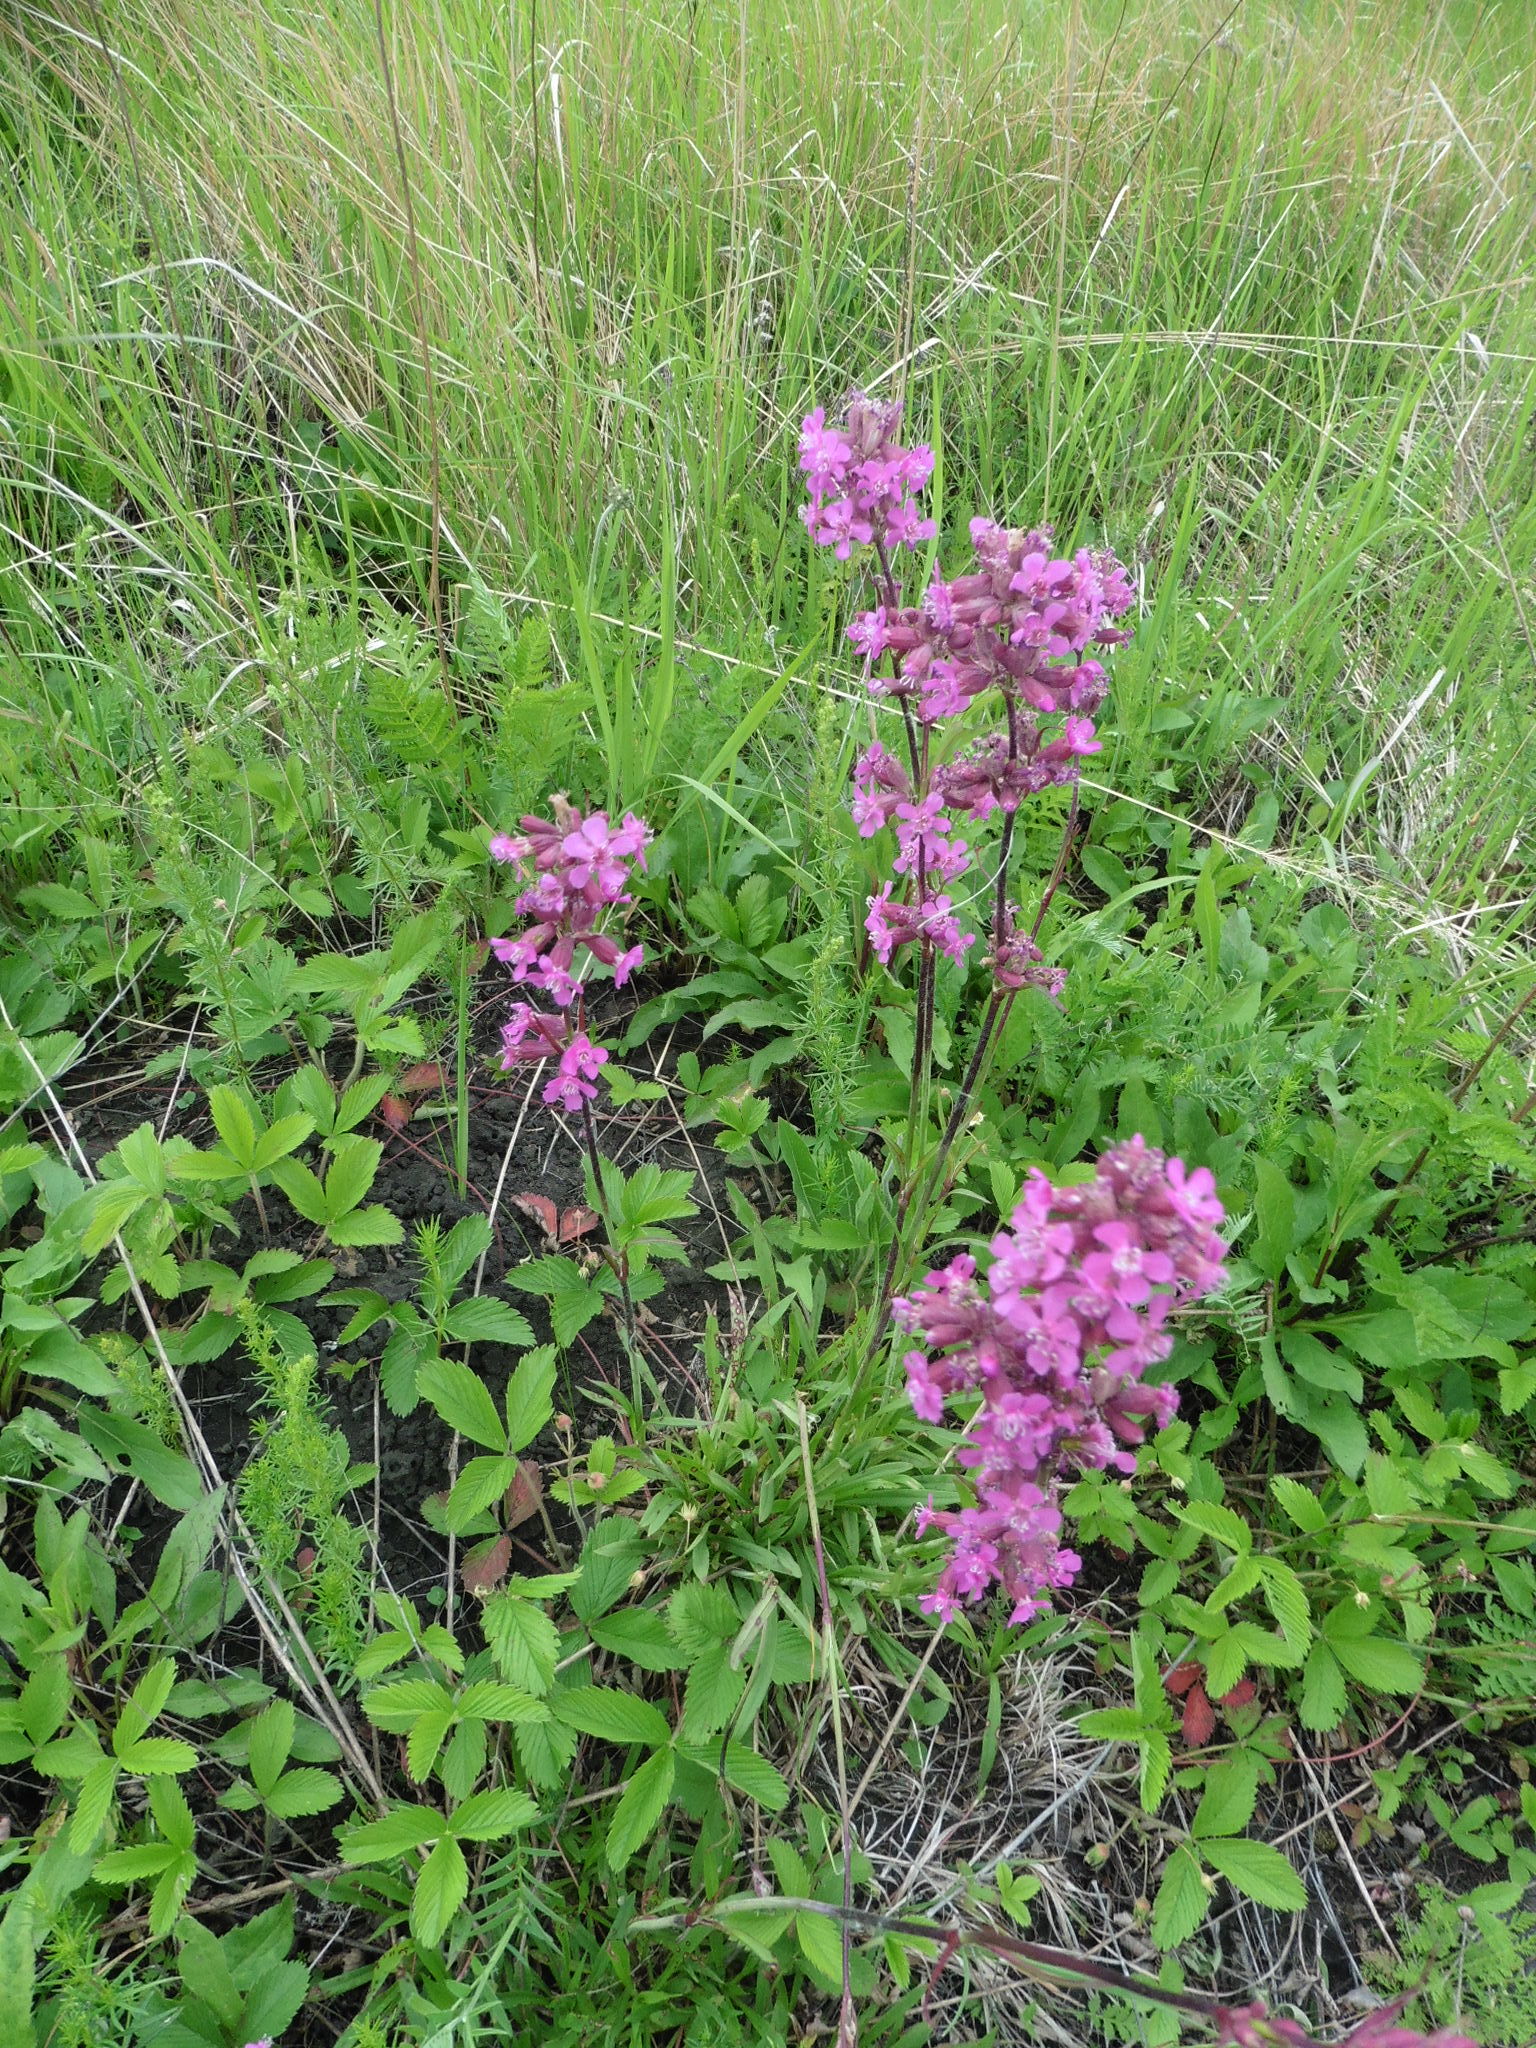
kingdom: Plantae
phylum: Tracheophyta
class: Magnoliopsida
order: Caryophyllales
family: Caryophyllaceae
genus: Viscaria
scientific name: Viscaria vulgaris
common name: Clammy campion
